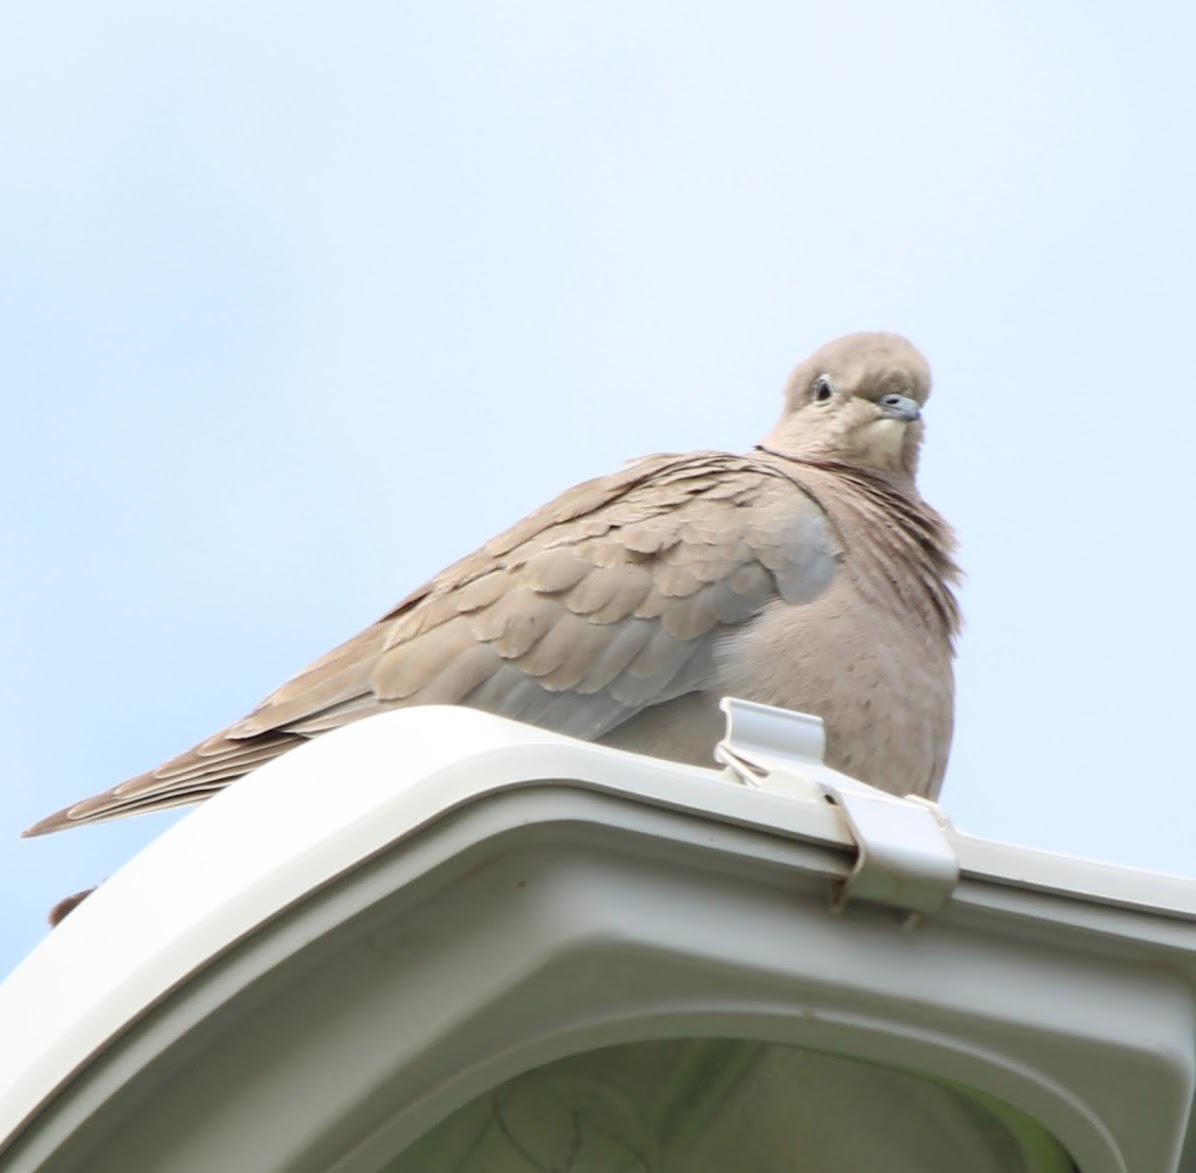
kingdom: Animalia
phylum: Chordata
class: Aves
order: Columbiformes
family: Columbidae
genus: Streptopelia
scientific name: Streptopelia decaocto
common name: Eurasian collared dove
